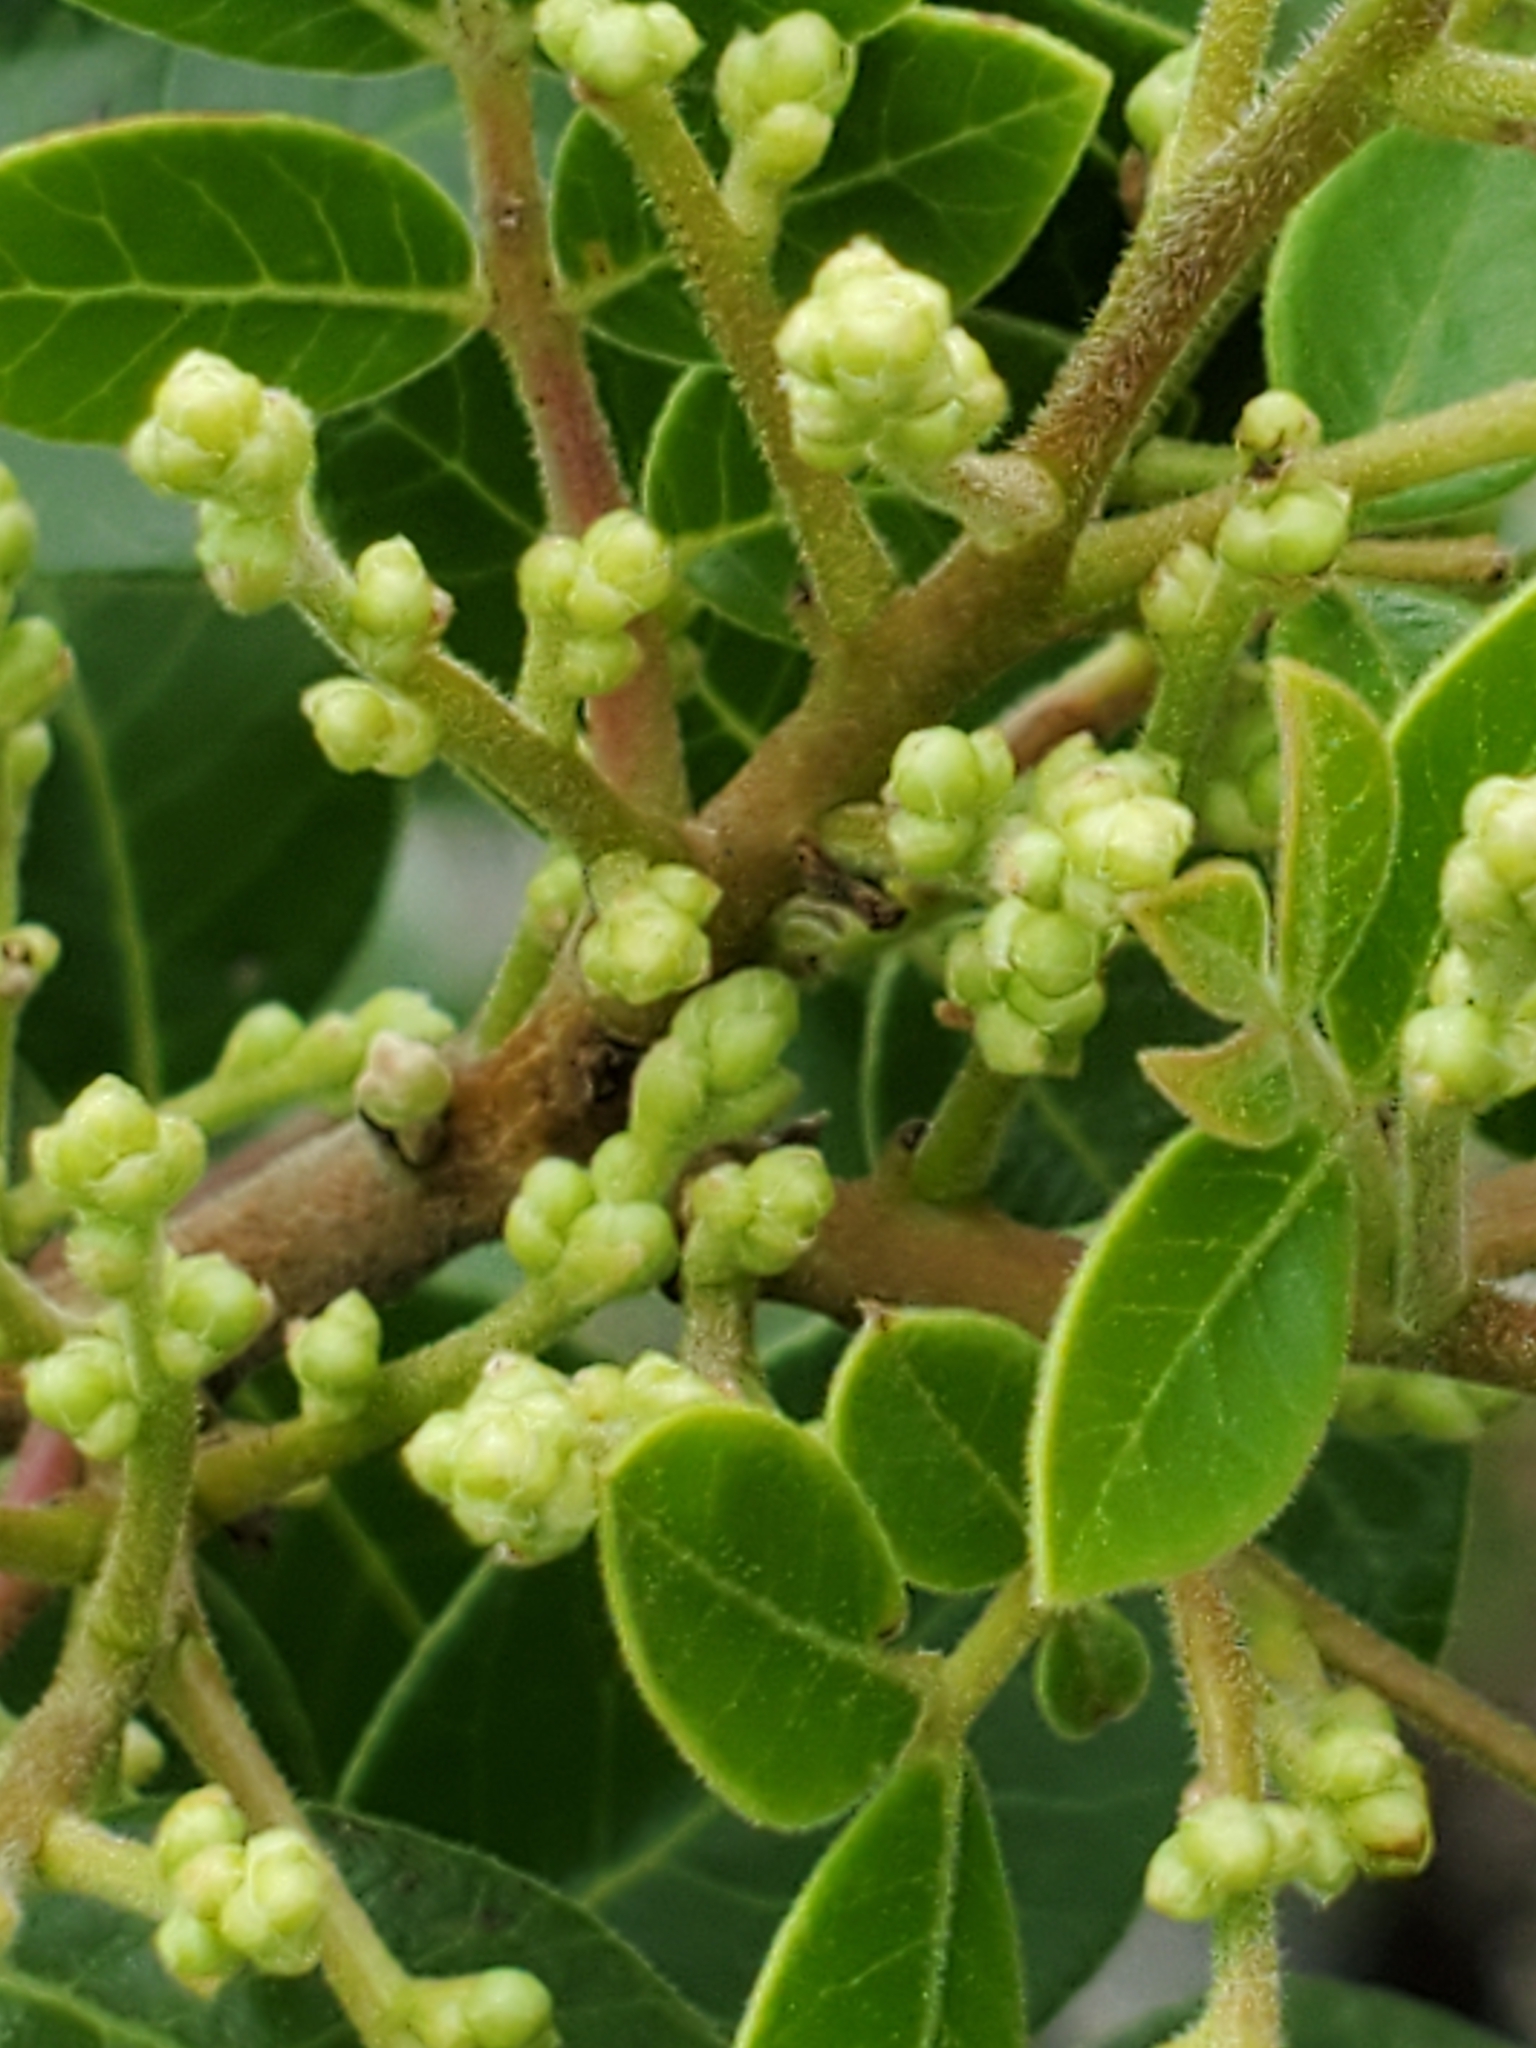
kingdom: Plantae
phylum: Tracheophyta
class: Magnoliopsida
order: Sapindales
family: Anacardiaceae
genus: Rhus
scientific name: Rhus virens
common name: Evergreen sumac
